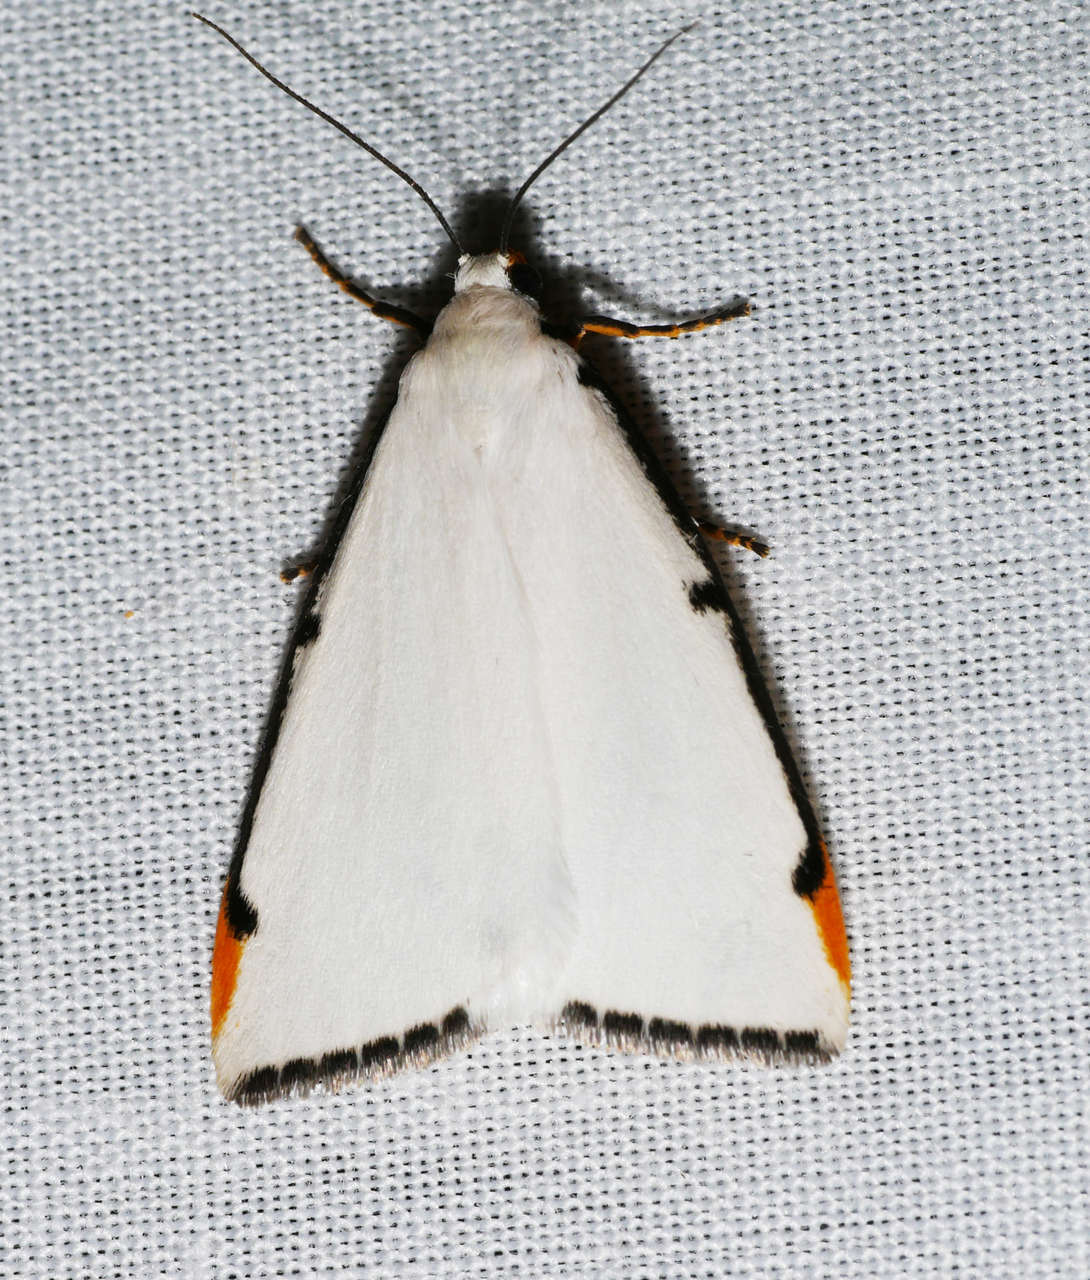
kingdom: Animalia
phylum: Arthropoda
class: Insecta
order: Lepidoptera
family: Erebidae
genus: Termessa
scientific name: Termessa nivosa
